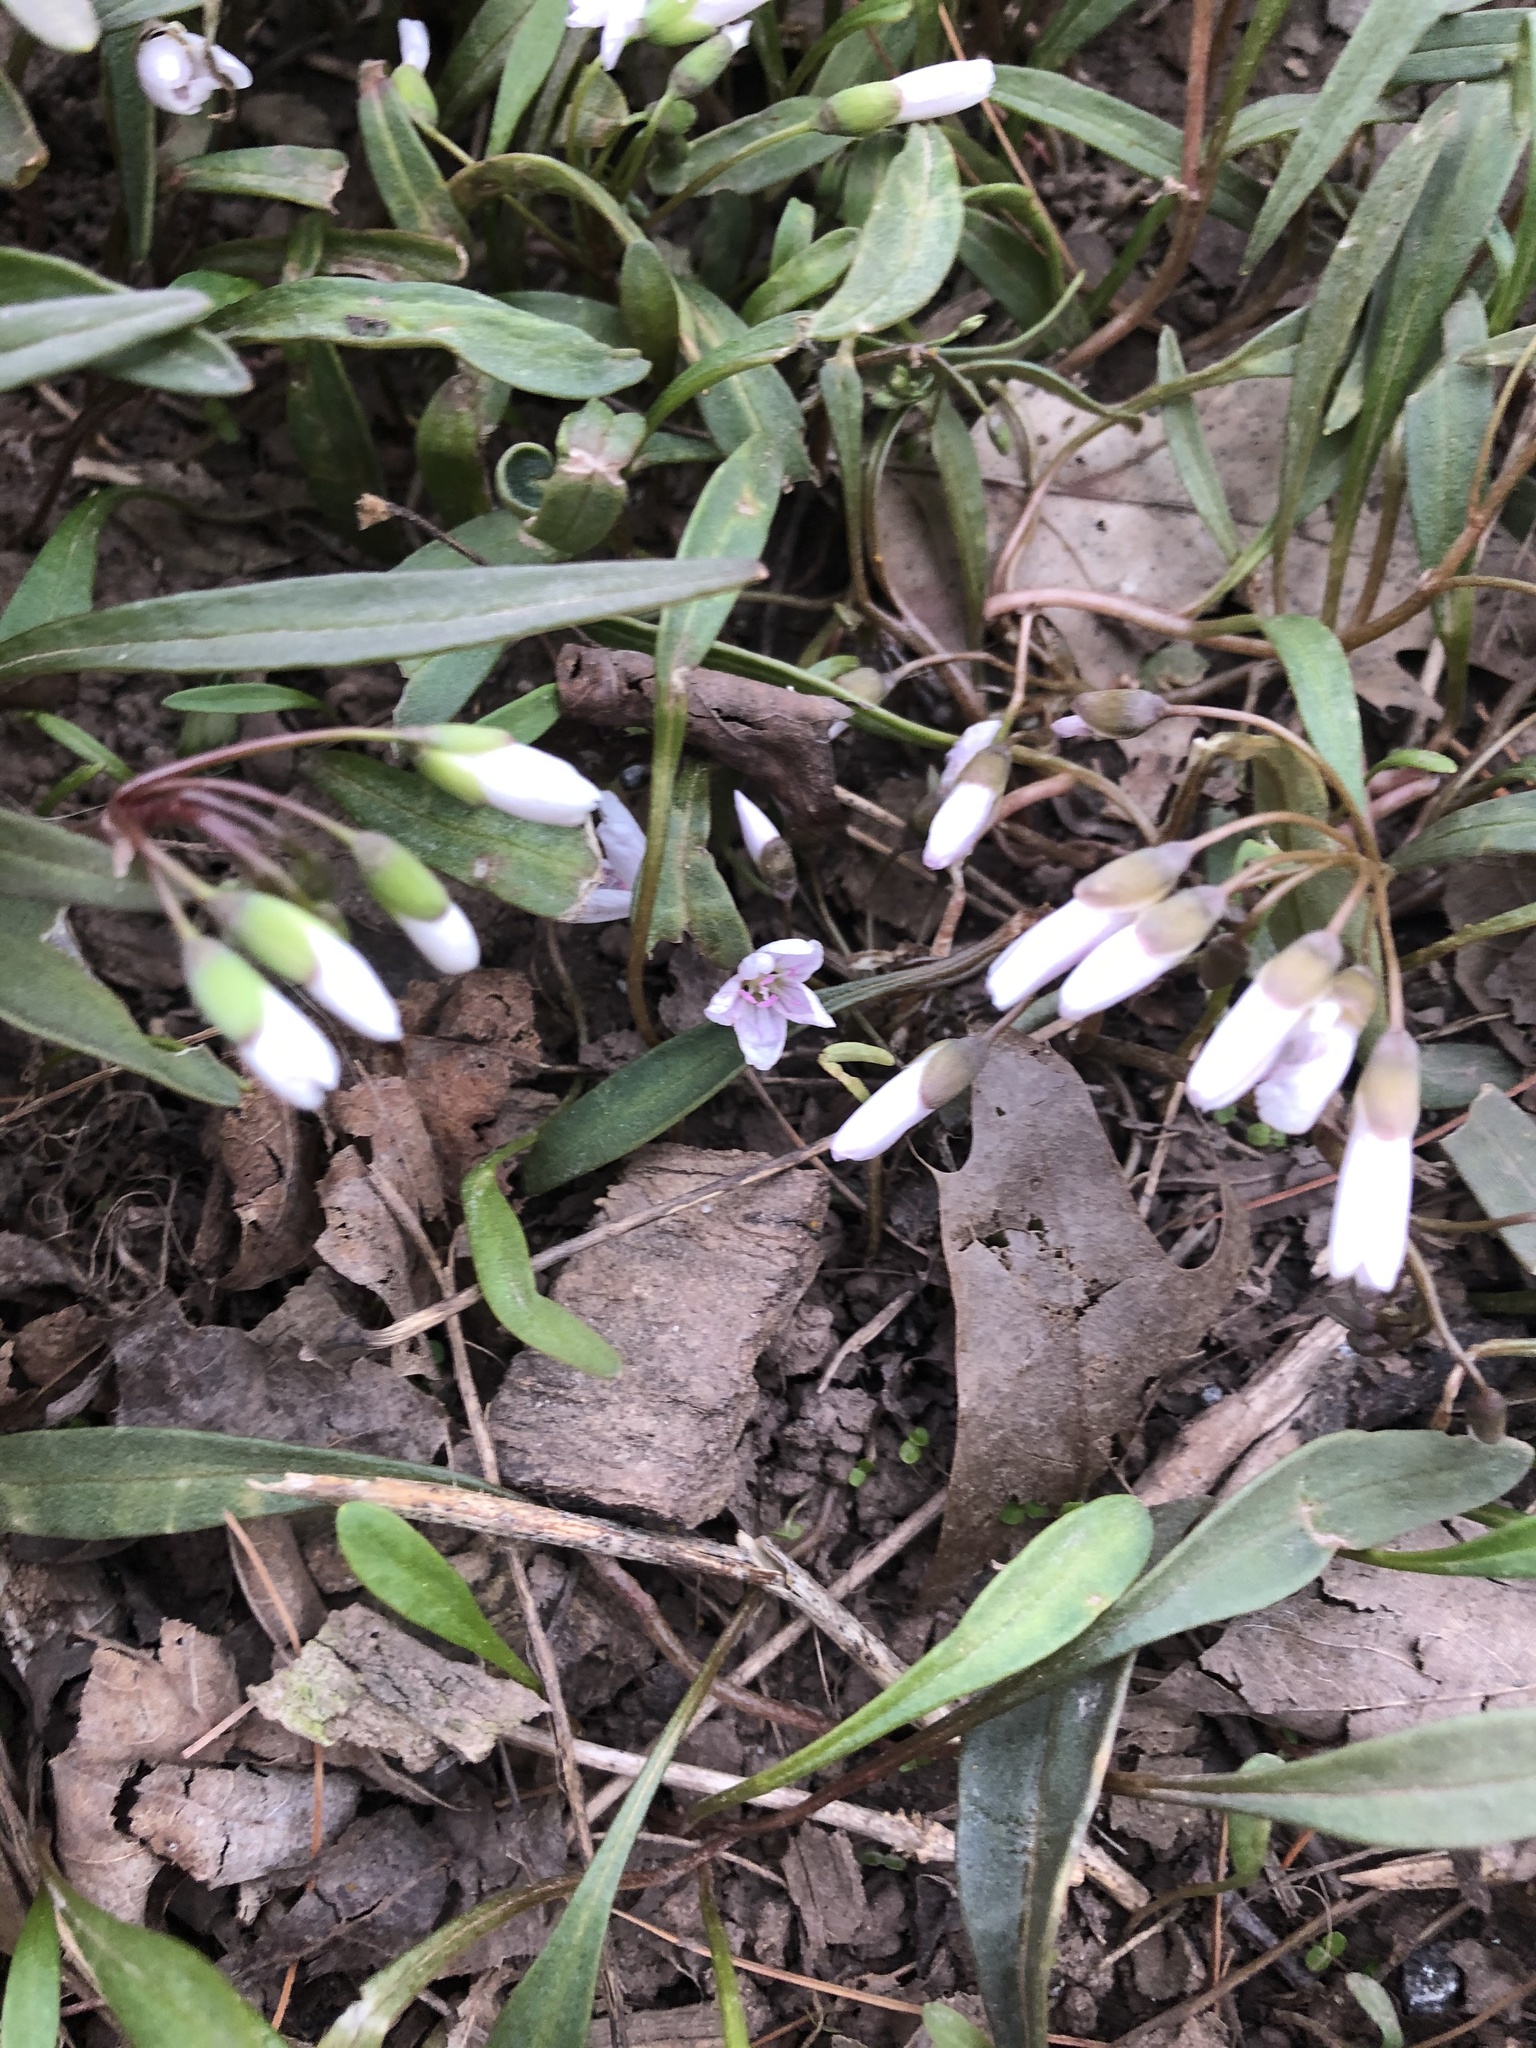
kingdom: Plantae
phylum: Tracheophyta
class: Magnoliopsida
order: Caryophyllales
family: Montiaceae
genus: Claytonia
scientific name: Claytonia virginica
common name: Virginia springbeauty
